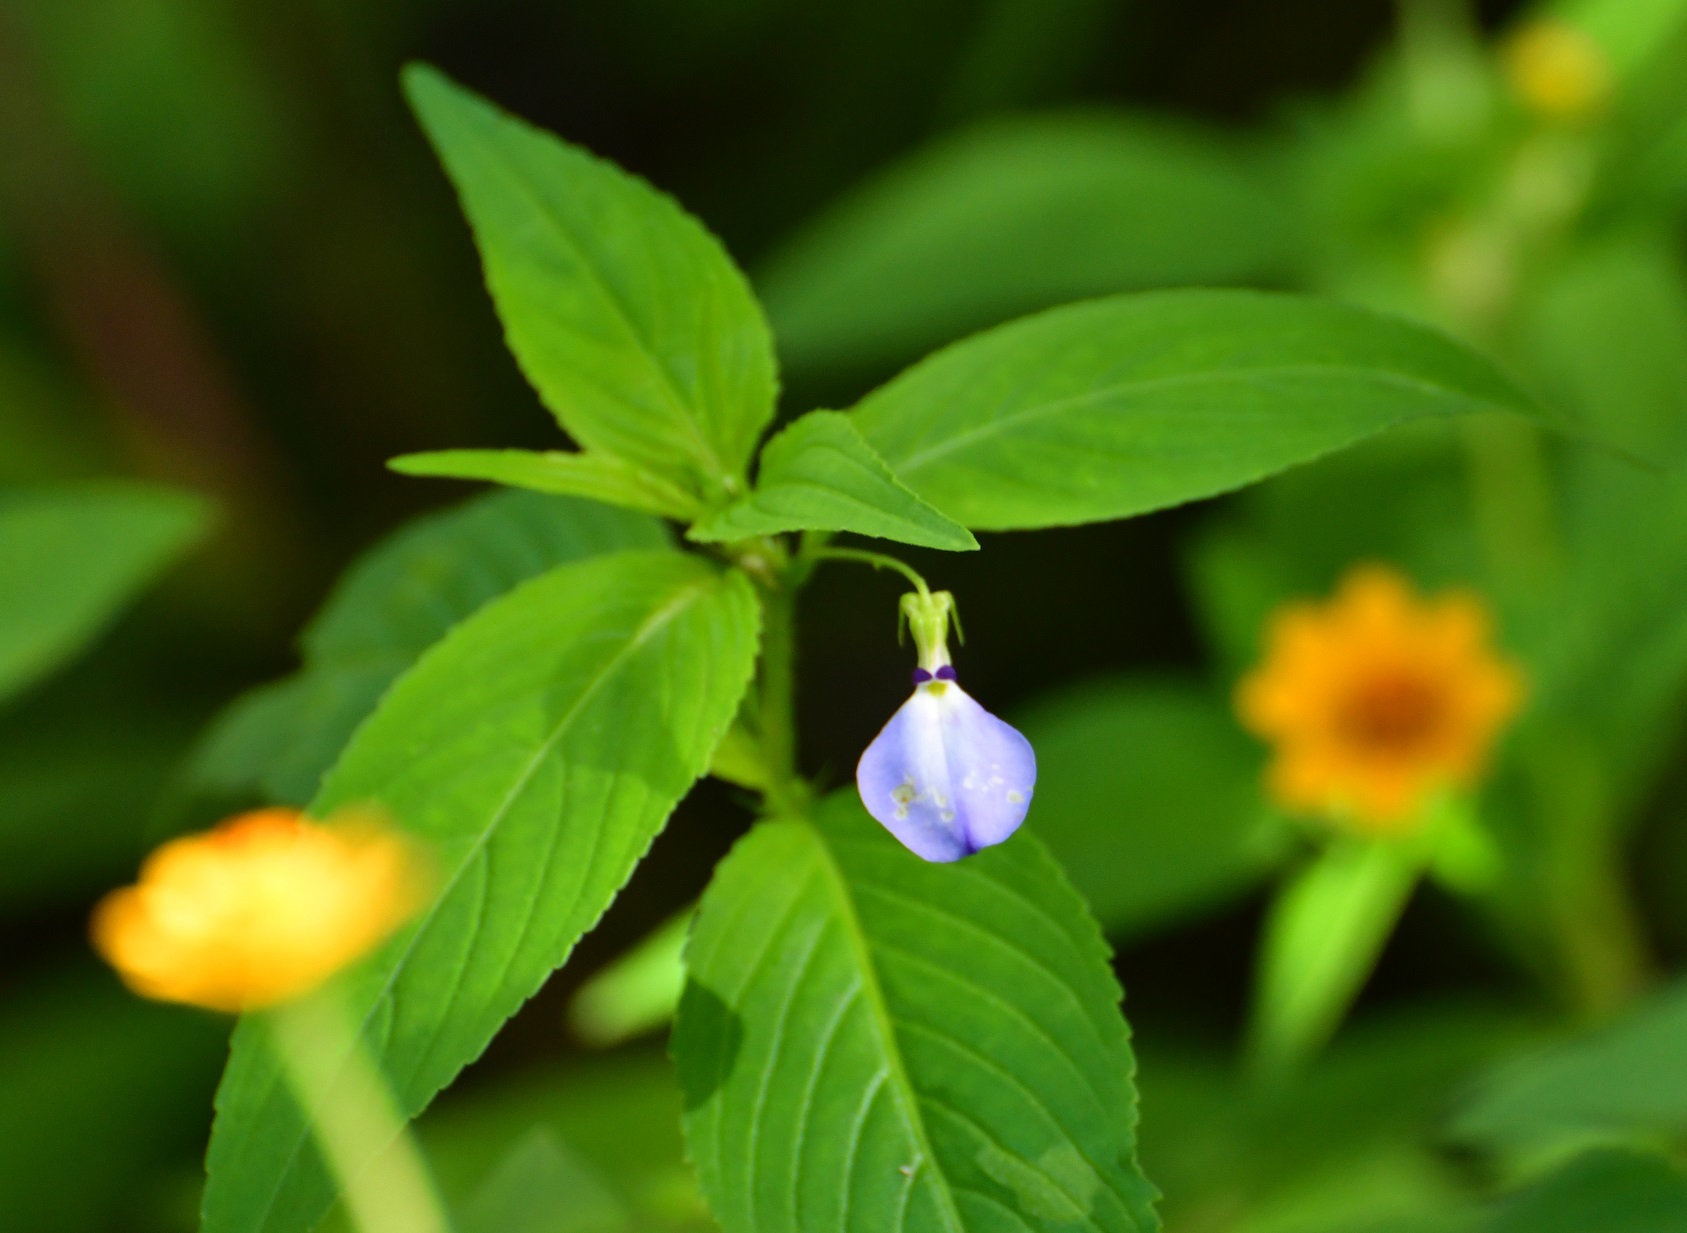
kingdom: Plantae
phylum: Tracheophyta
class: Magnoliopsida
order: Malpighiales
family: Violaceae
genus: Pombalia
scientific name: Pombalia glabra
